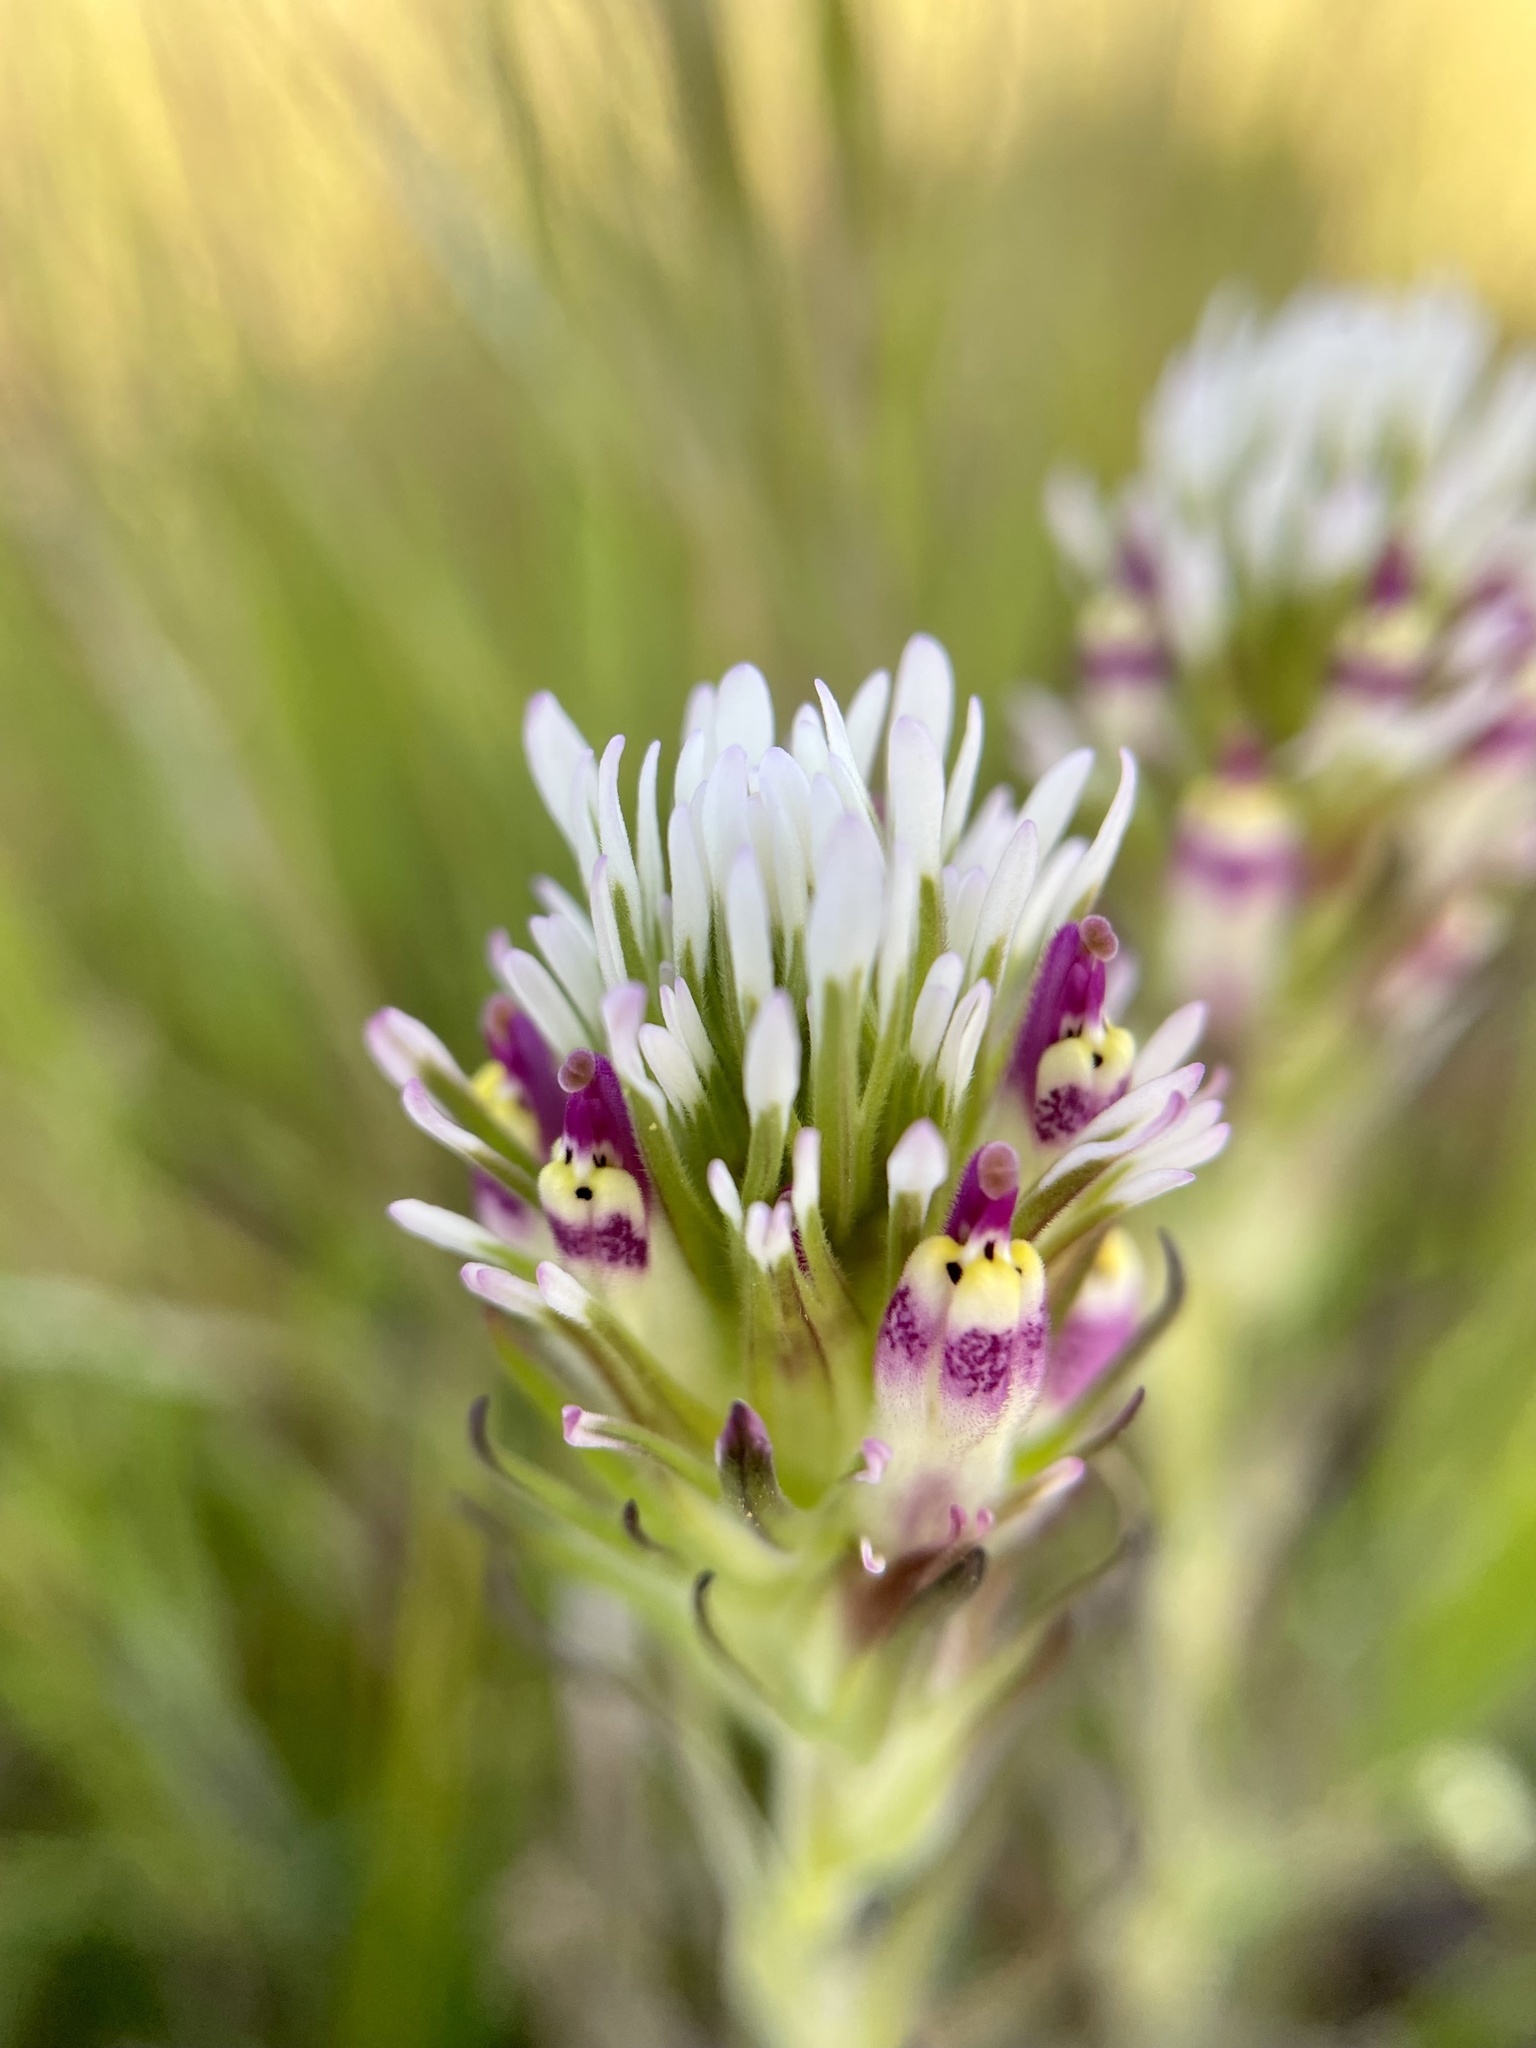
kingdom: Plantae
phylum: Tracheophyta
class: Magnoliopsida
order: Lamiales
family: Orobanchaceae
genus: Castilleja
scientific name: Castilleja densiflora
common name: Dense-flower indian paintbrush
